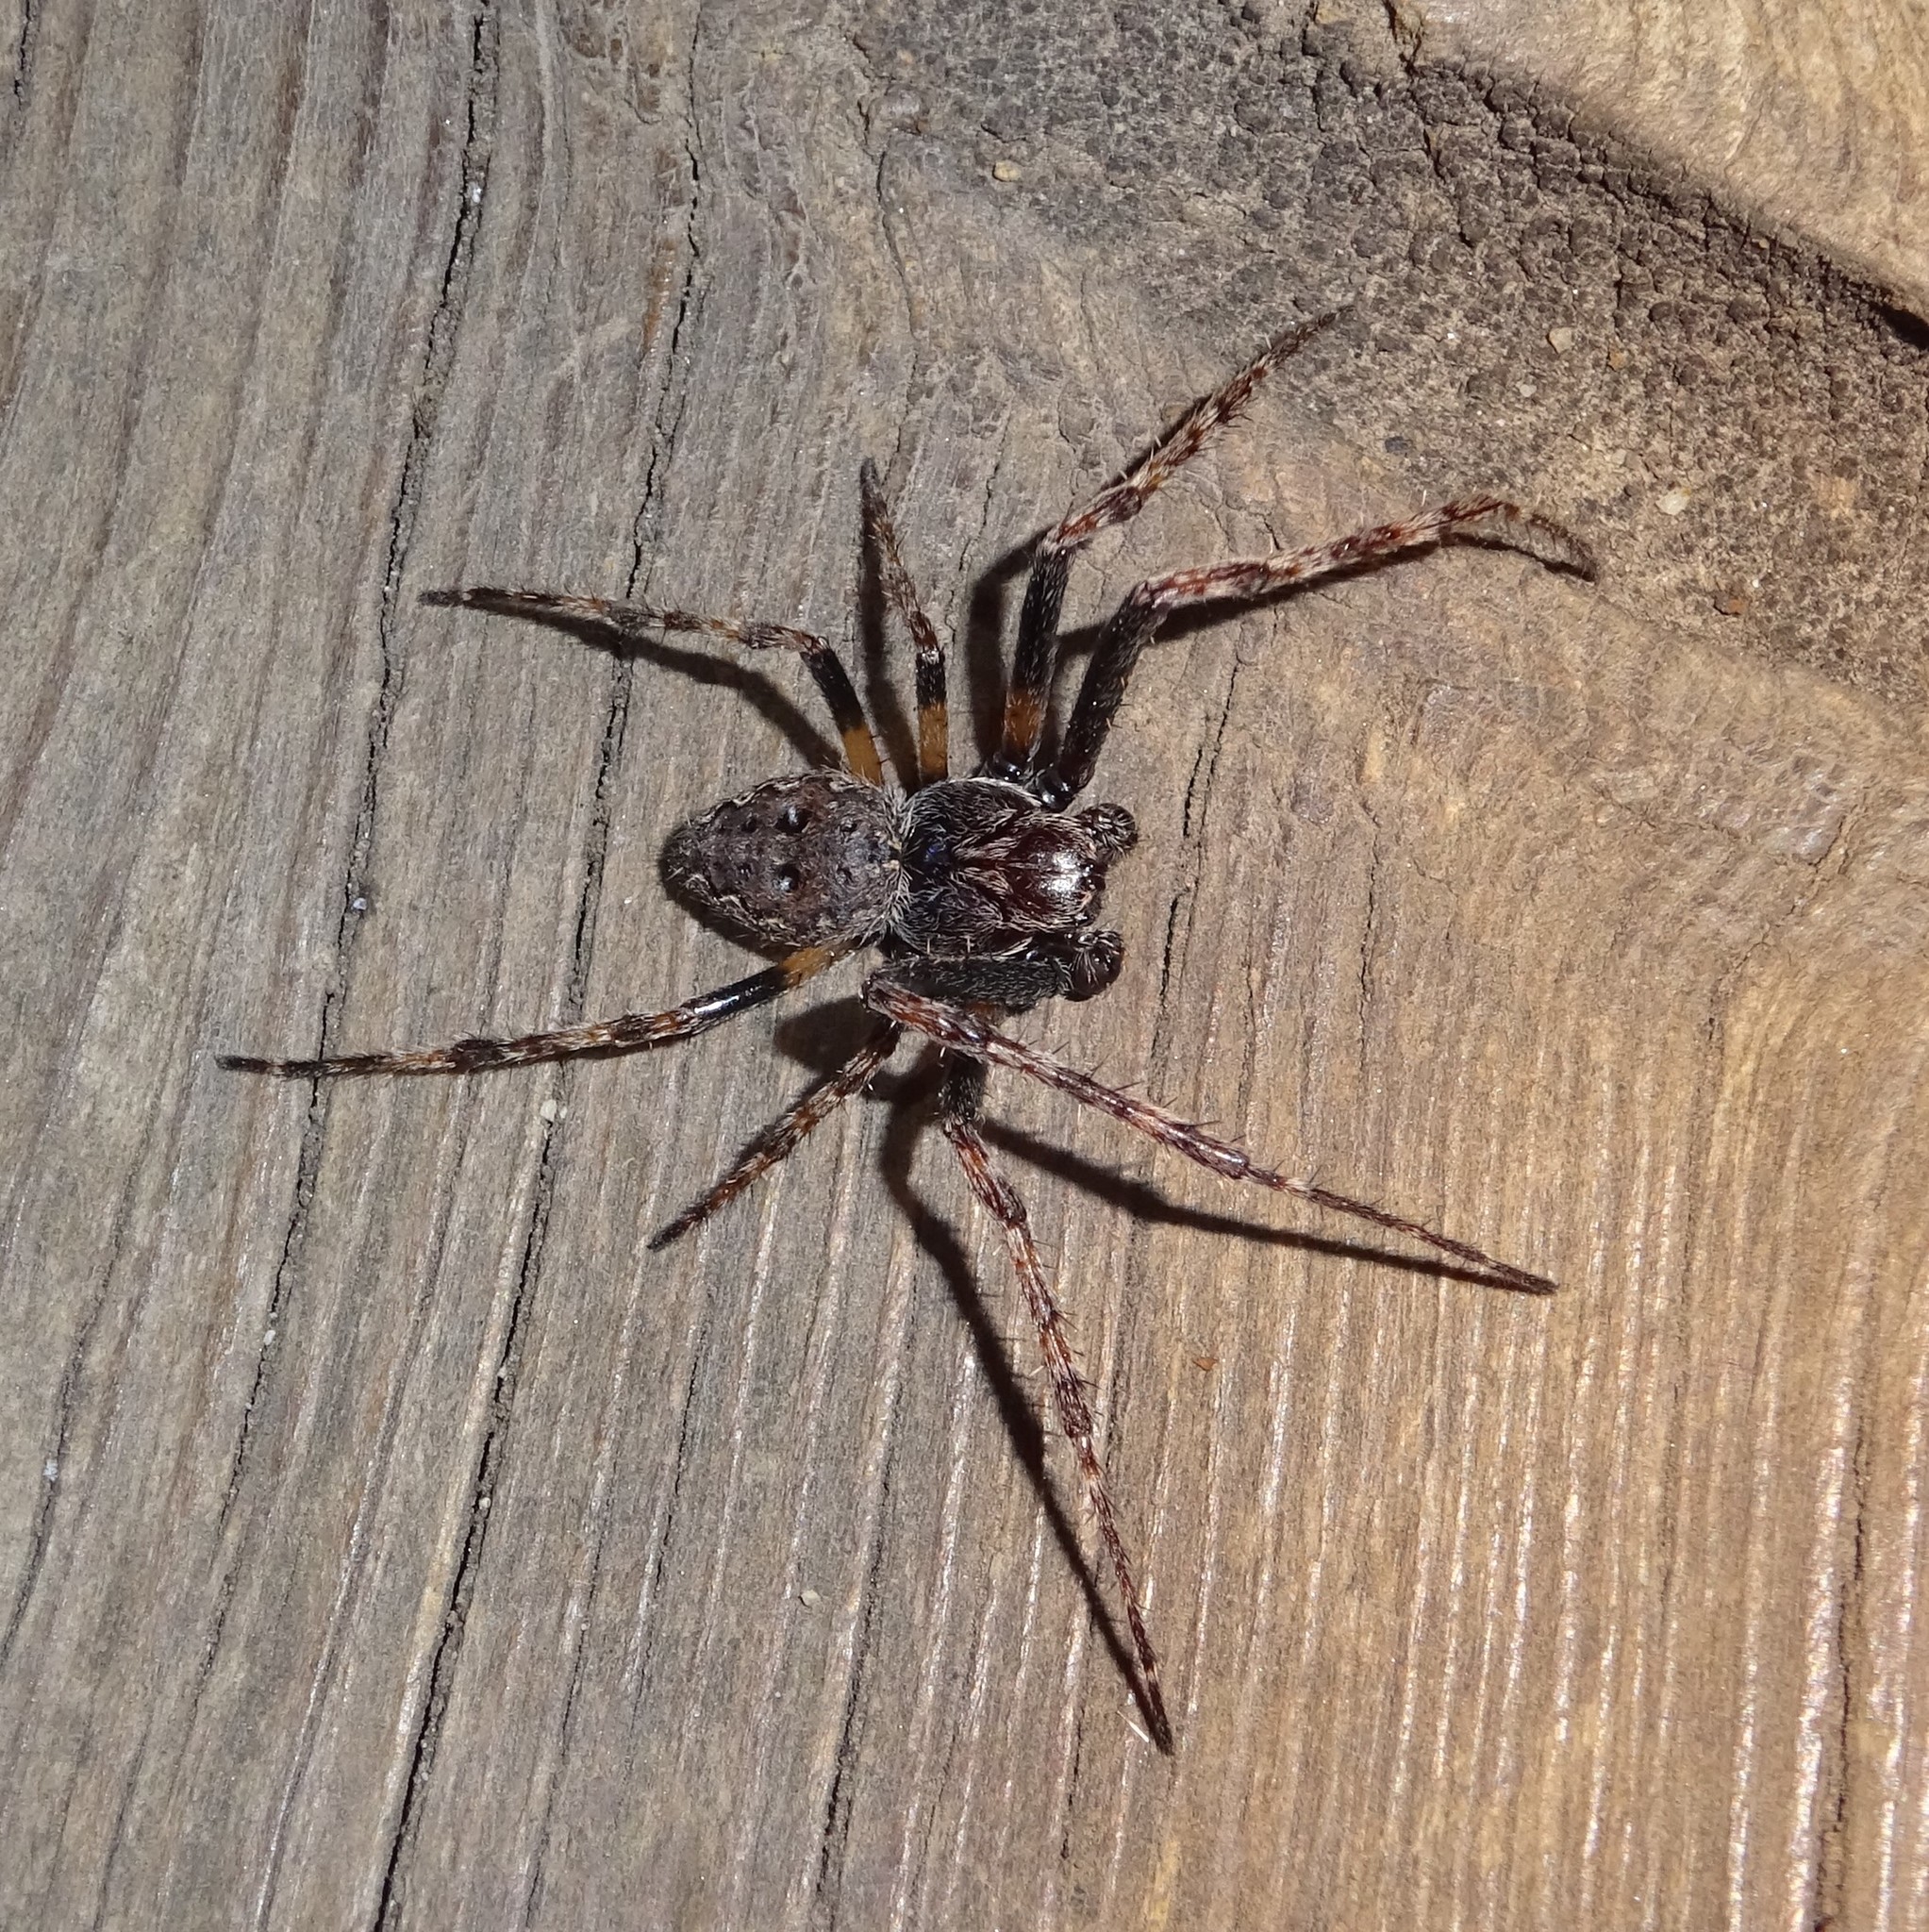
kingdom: Animalia
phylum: Arthropoda
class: Arachnida
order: Araneae
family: Araneidae
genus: Nuctenea
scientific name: Nuctenea umbratica
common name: Toad spider
